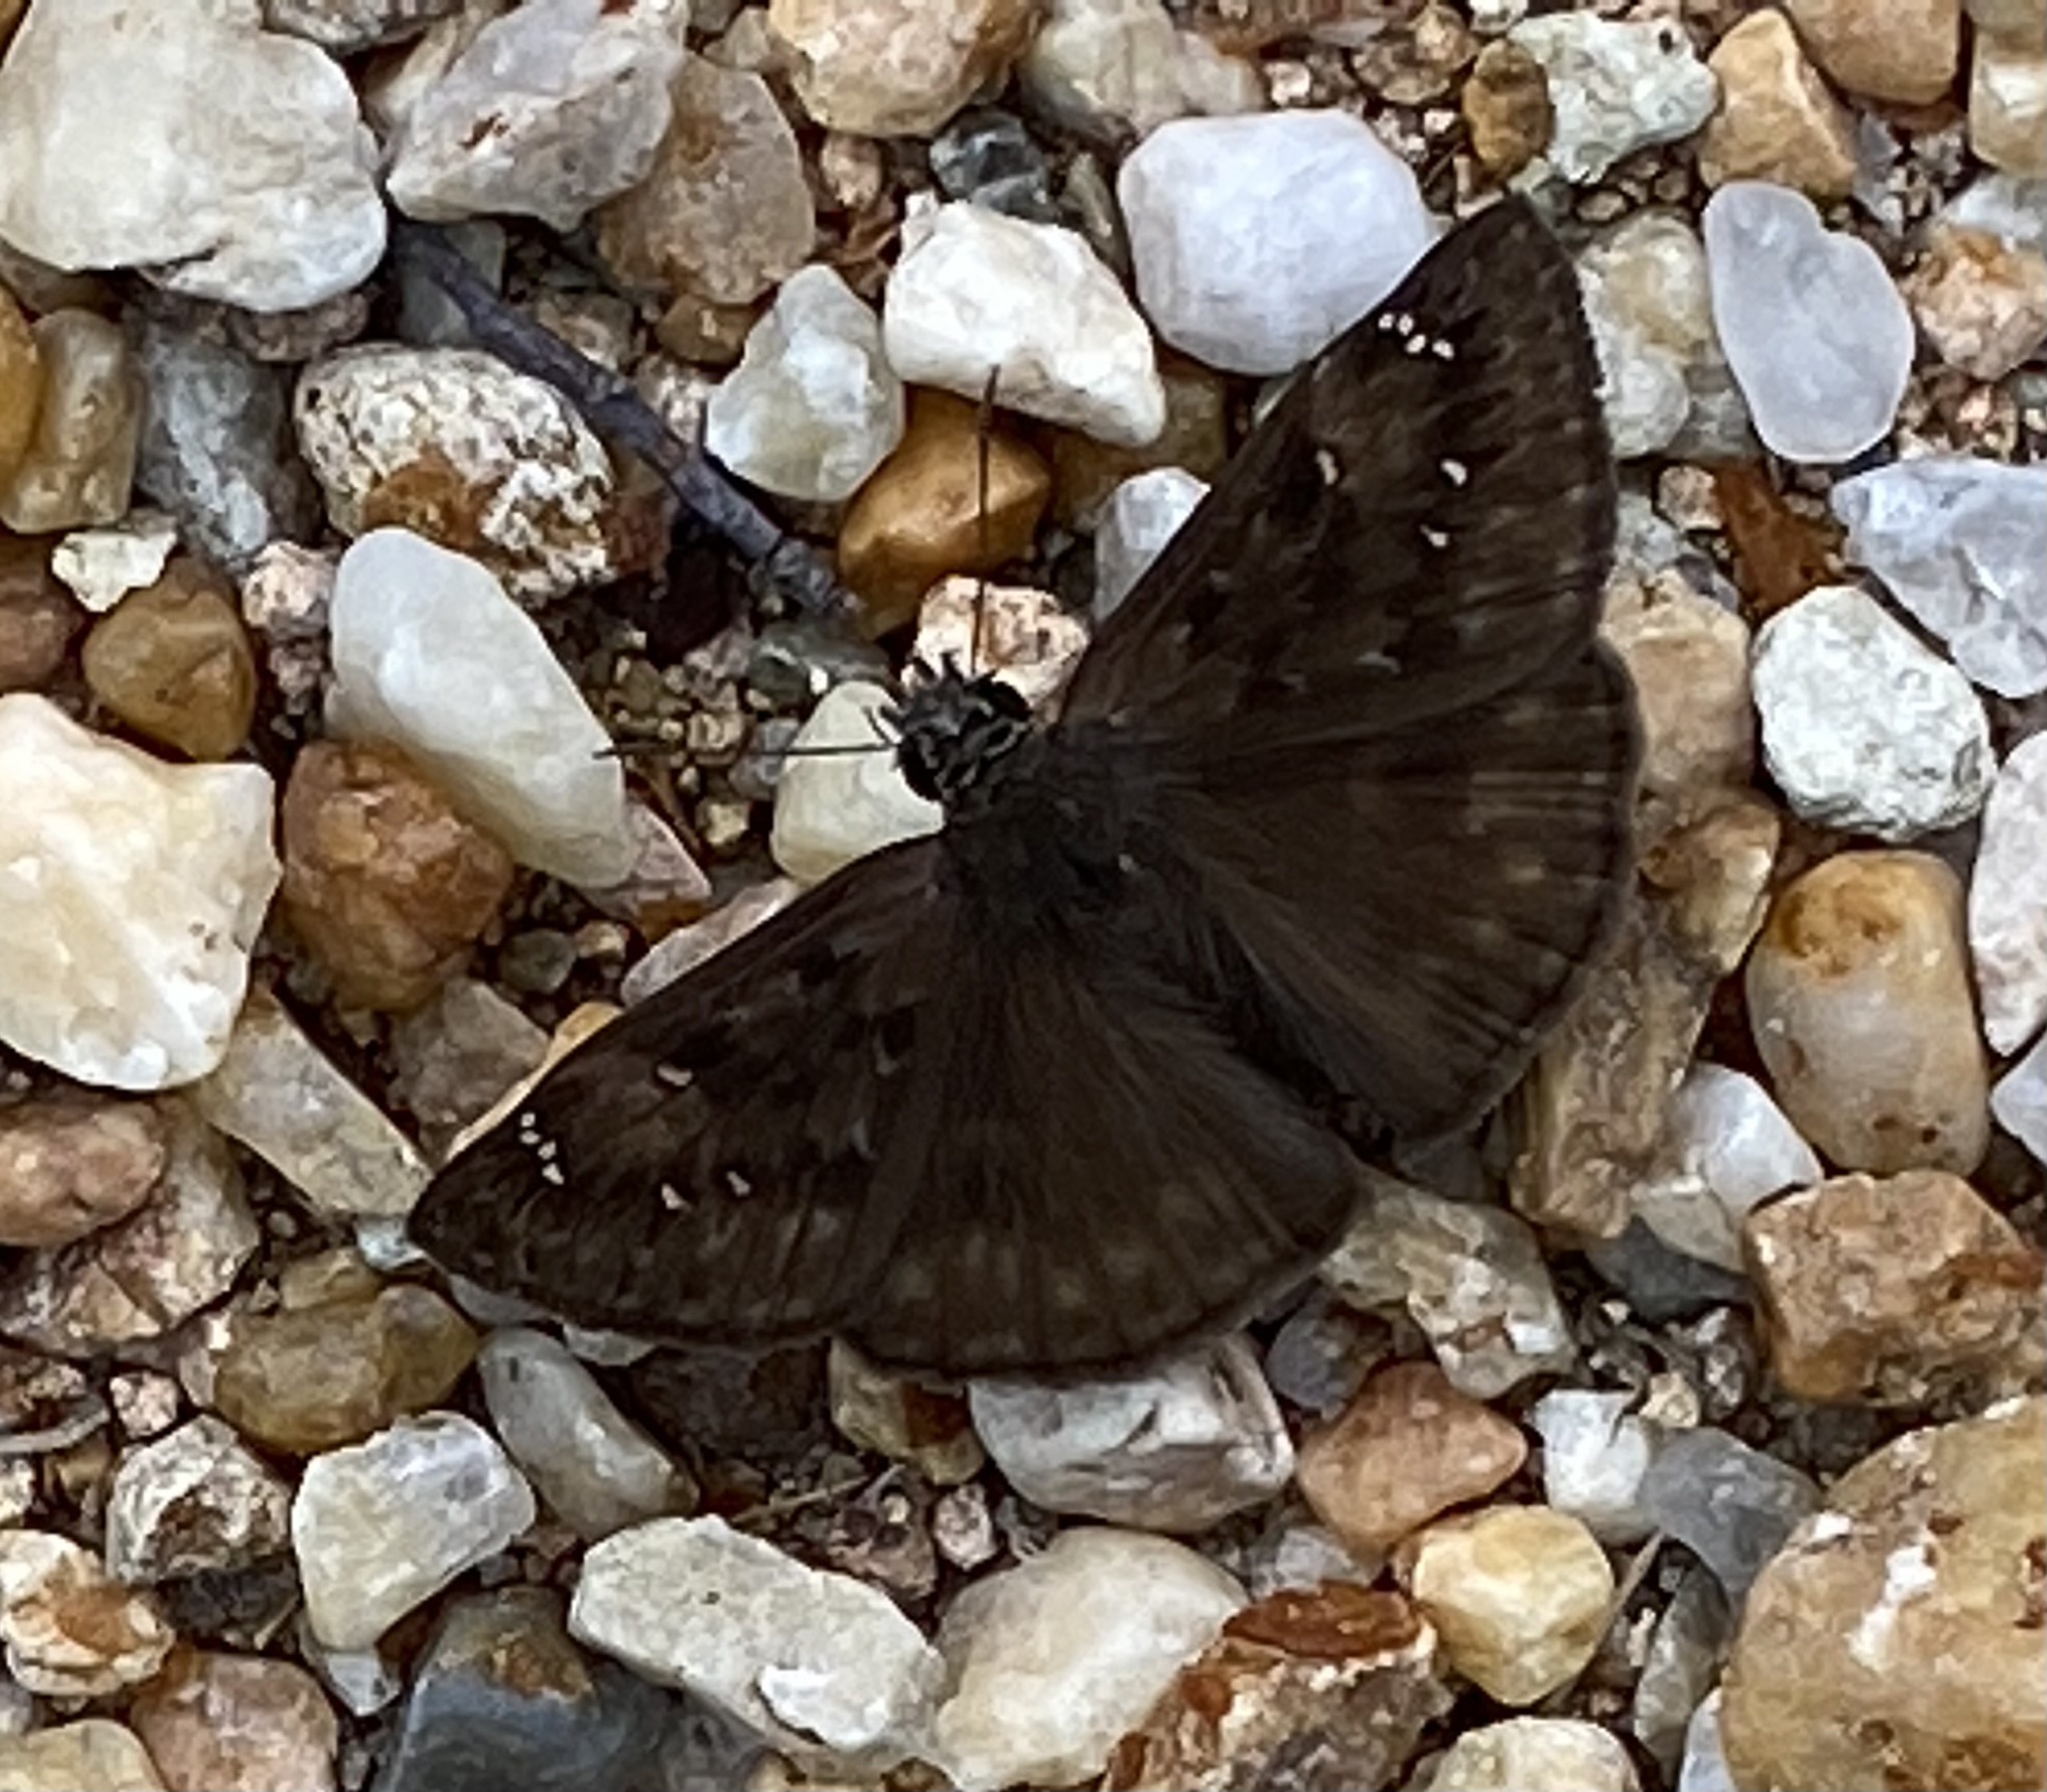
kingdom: Animalia
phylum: Arthropoda
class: Insecta
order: Lepidoptera
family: Hesperiidae
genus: Erynnis
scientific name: Erynnis horatius
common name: Horace's duskywing
